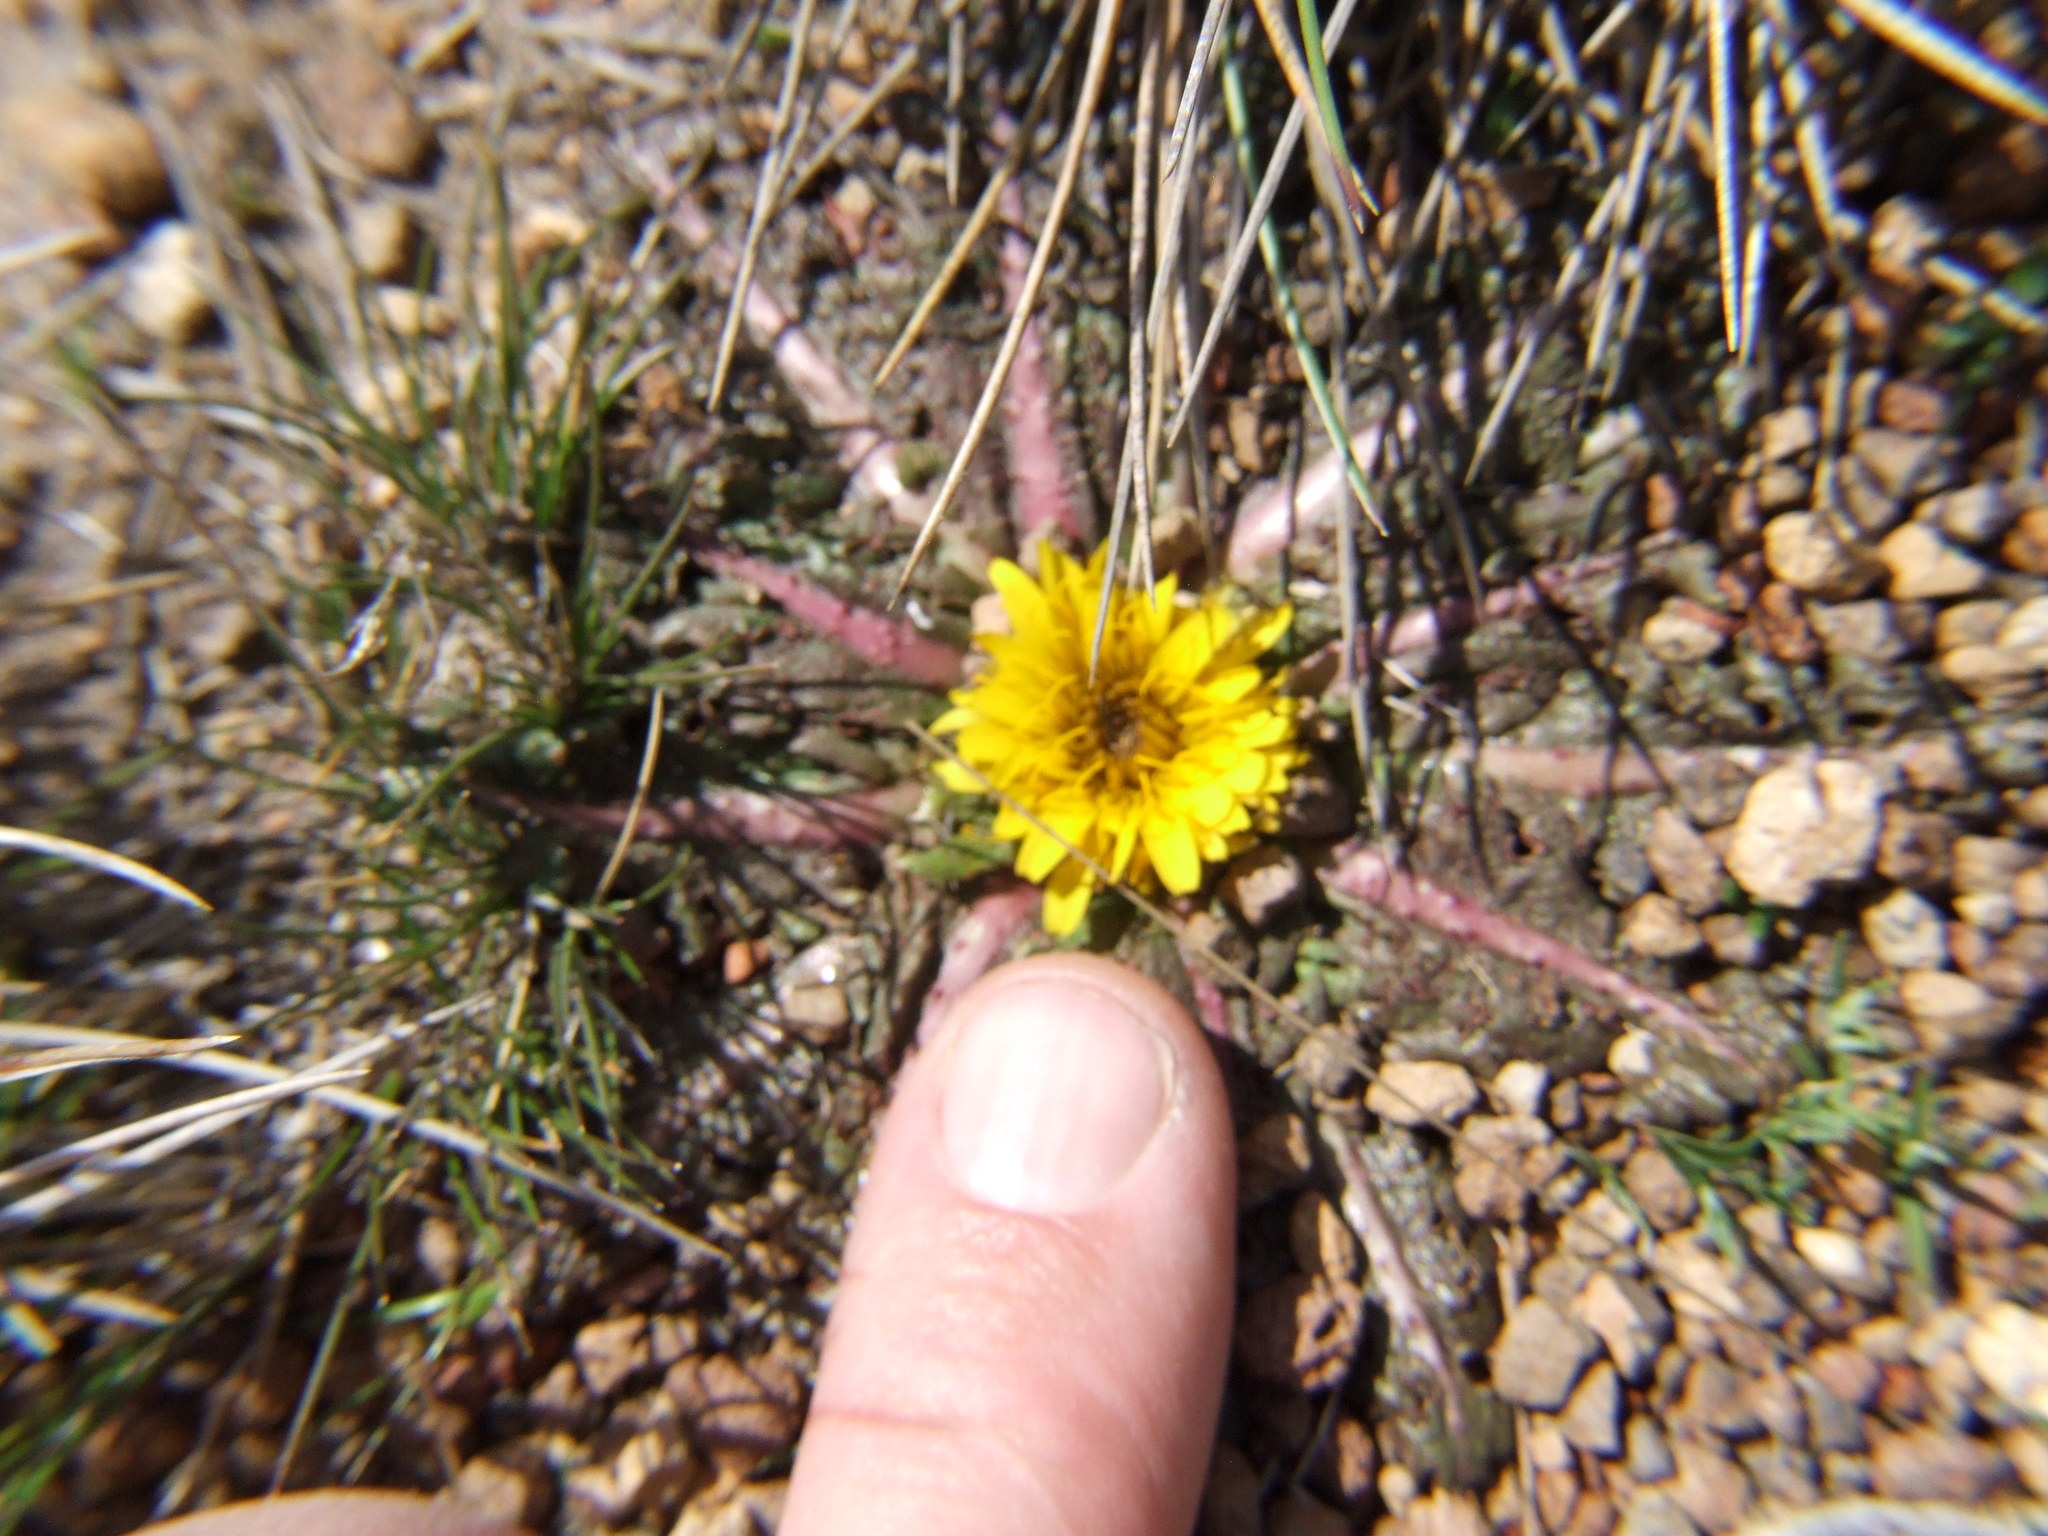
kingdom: Plantae
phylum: Tracheophyta
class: Magnoliopsida
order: Asterales
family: Asteraceae
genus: Hypochaeris
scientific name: Hypochaeris meyeniana
